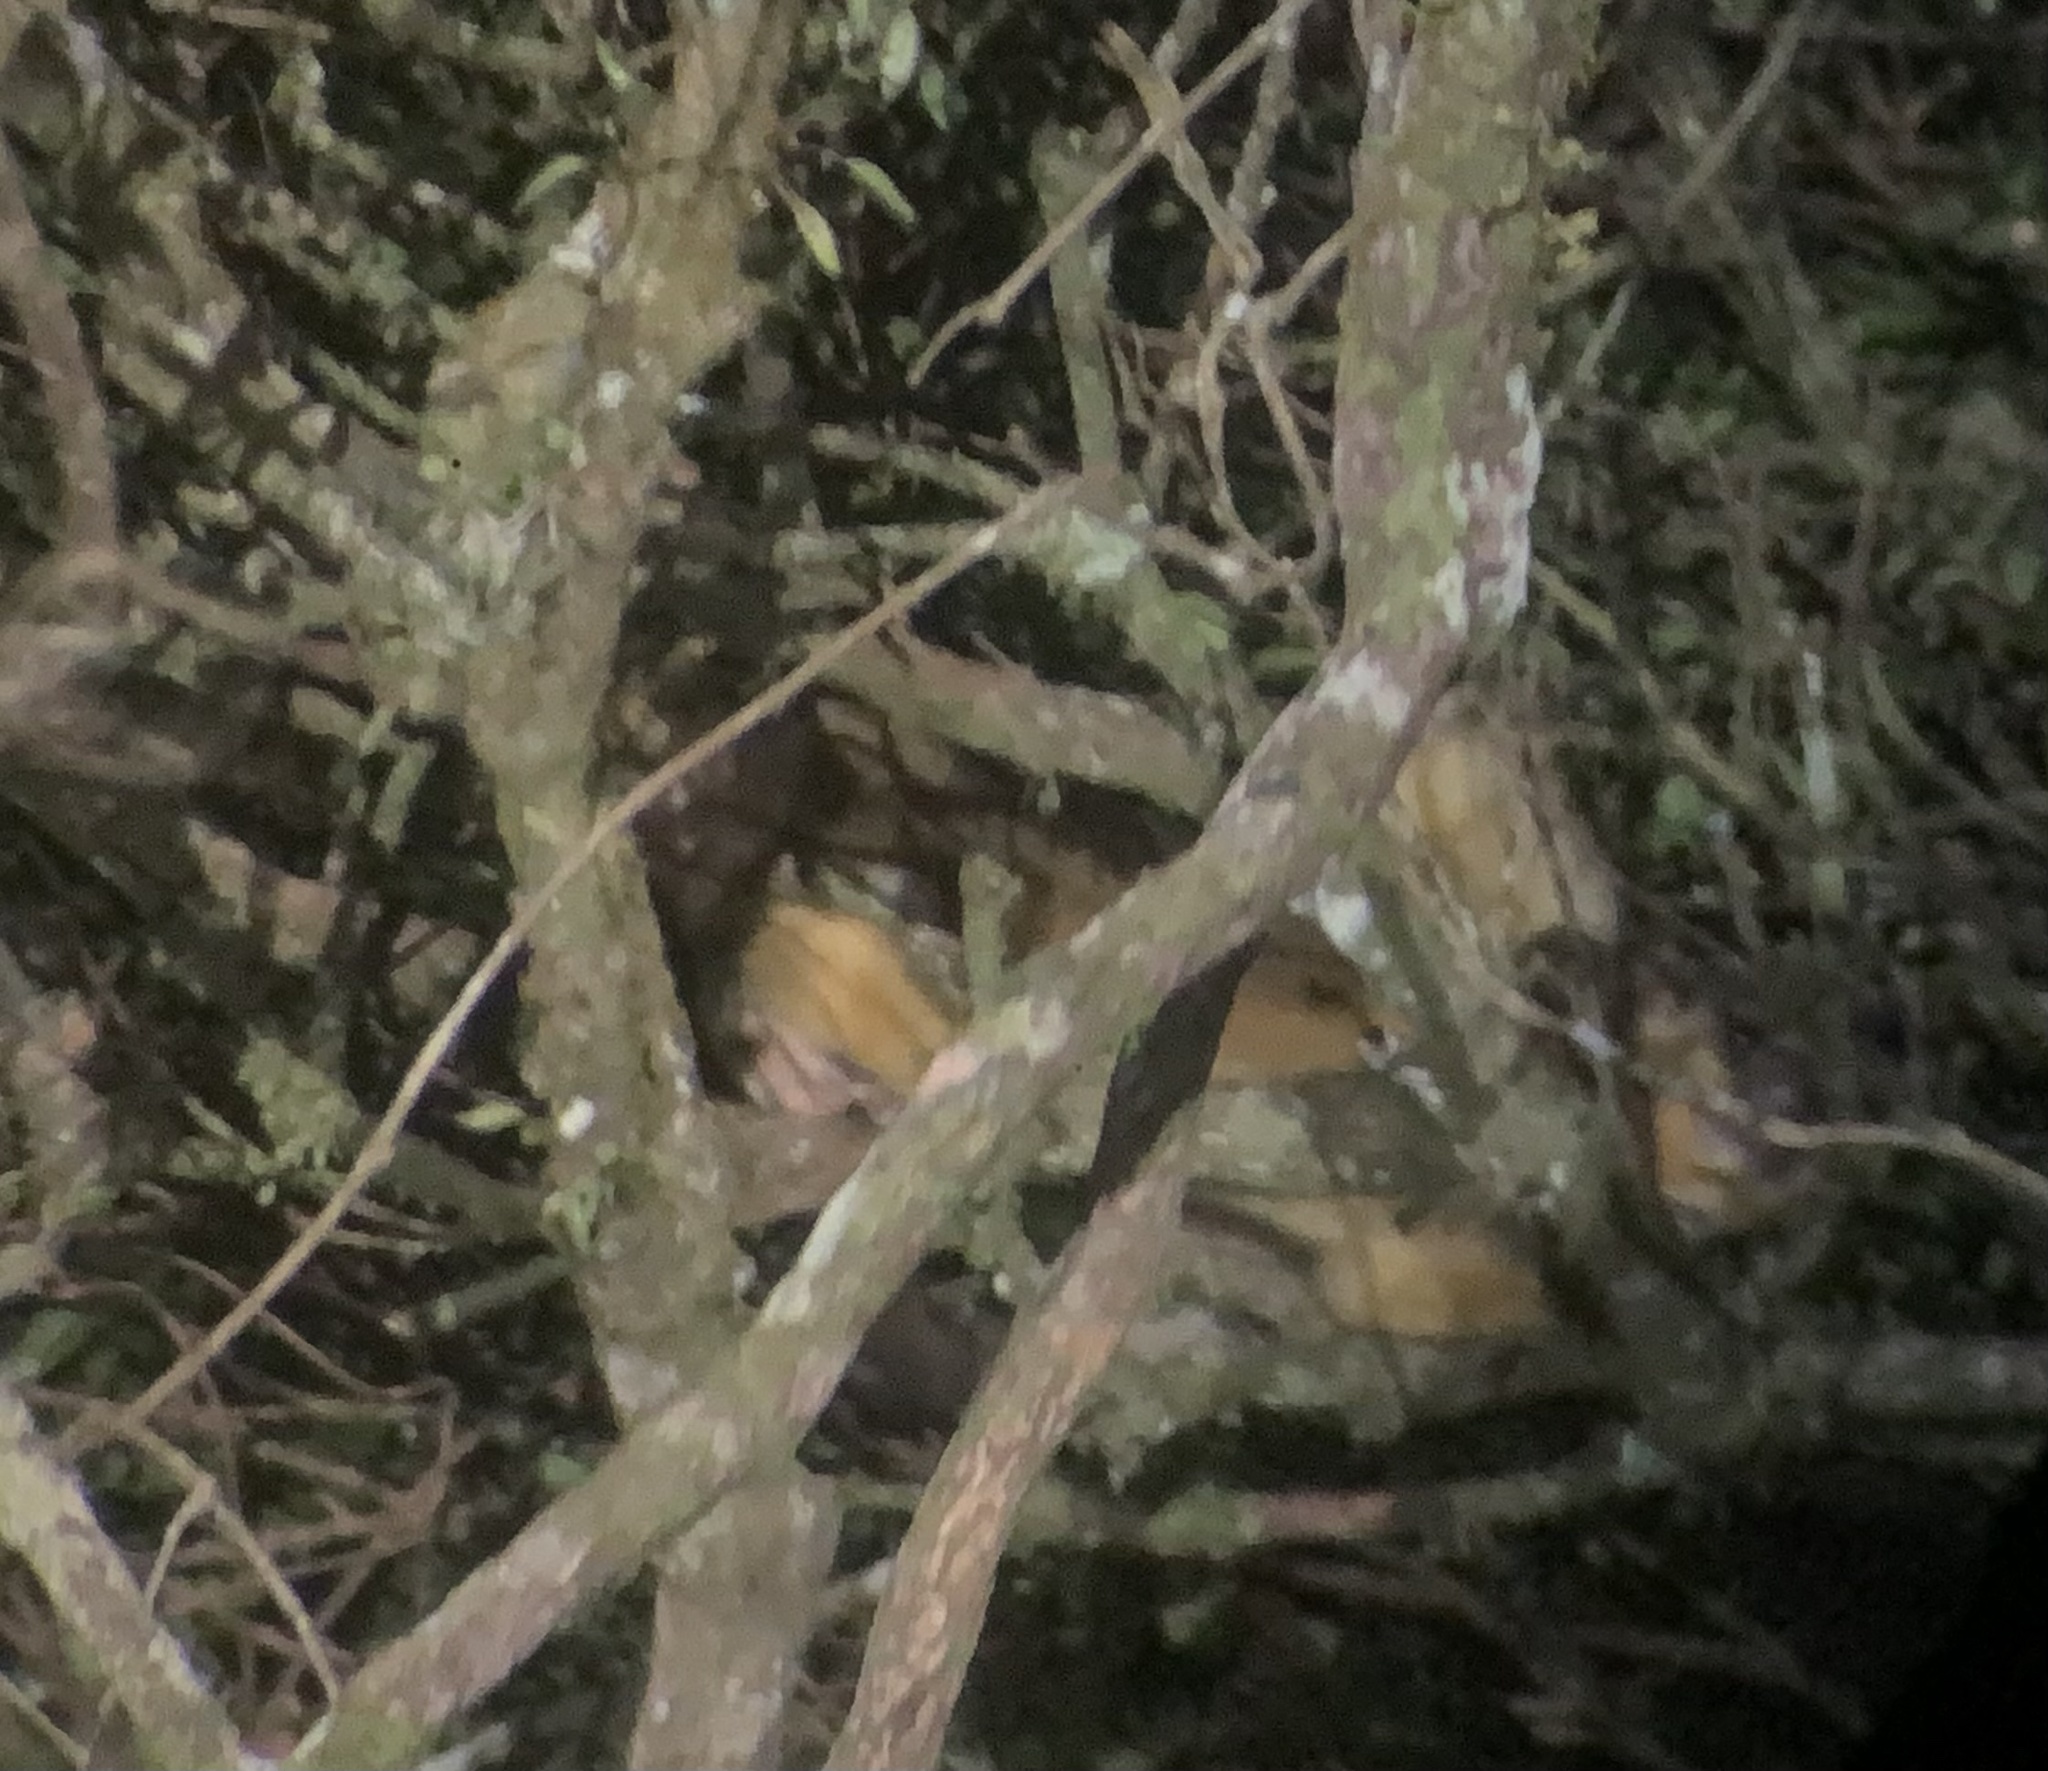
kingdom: Animalia
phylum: Chordata
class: Mammalia
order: Carnivora
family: Procyonidae
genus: Potos
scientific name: Potos flavus
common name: Kinkajou
